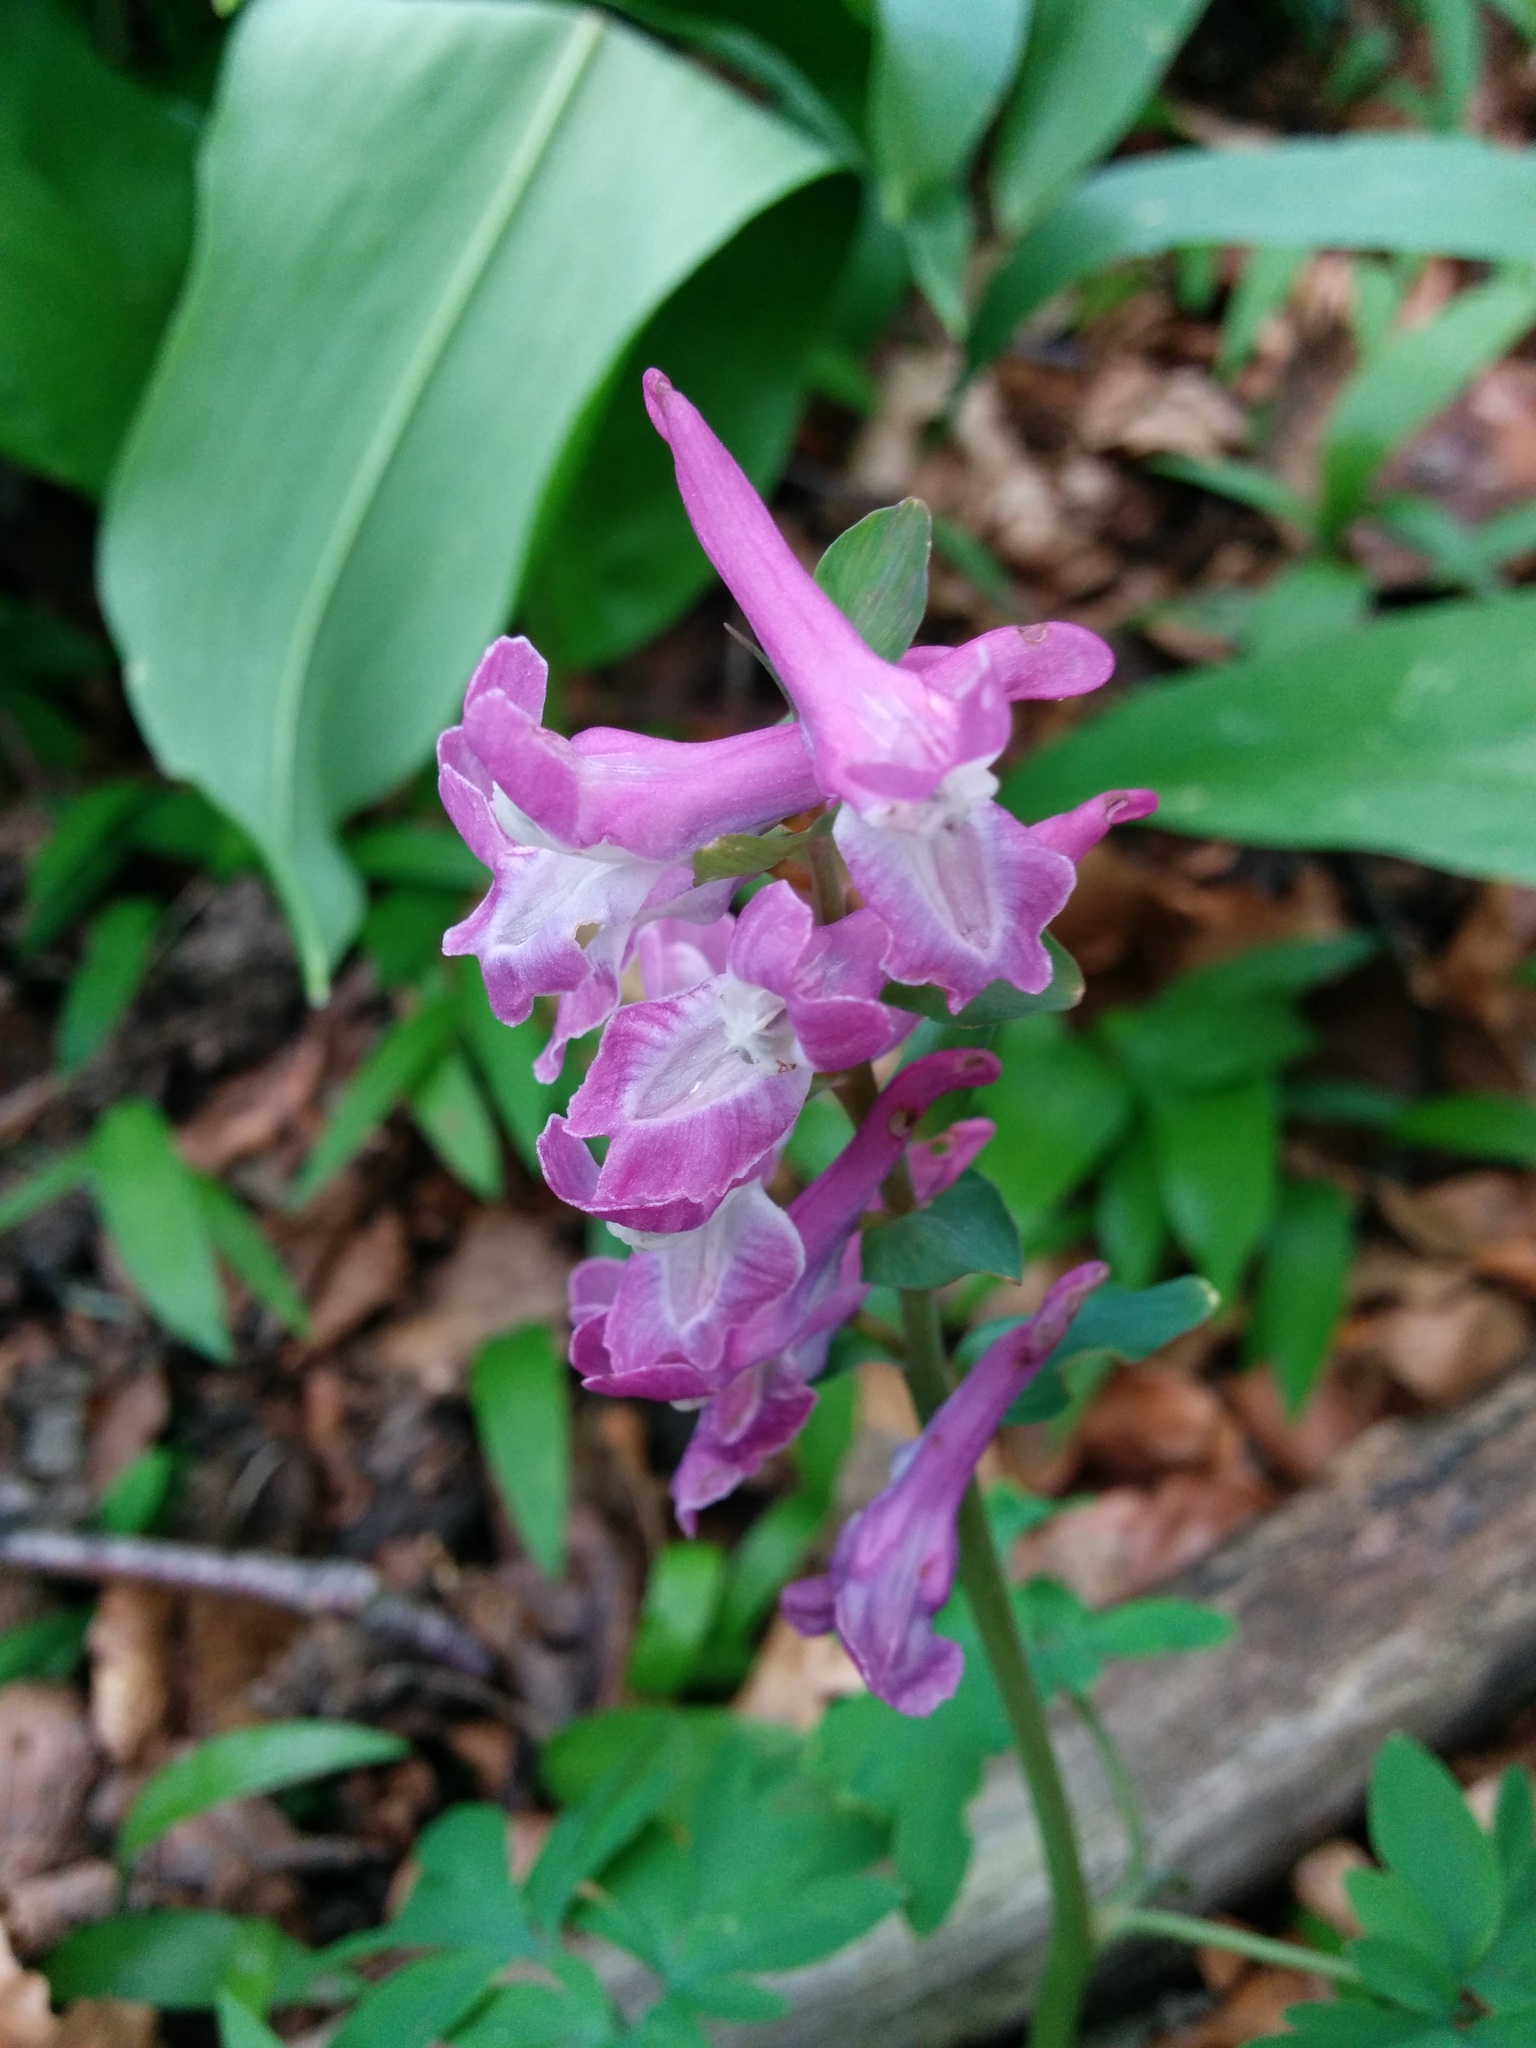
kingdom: Plantae
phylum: Tracheophyta
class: Magnoliopsida
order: Ranunculales
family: Papaveraceae
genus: Corydalis
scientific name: Corydalis cava
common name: Hollowroot
